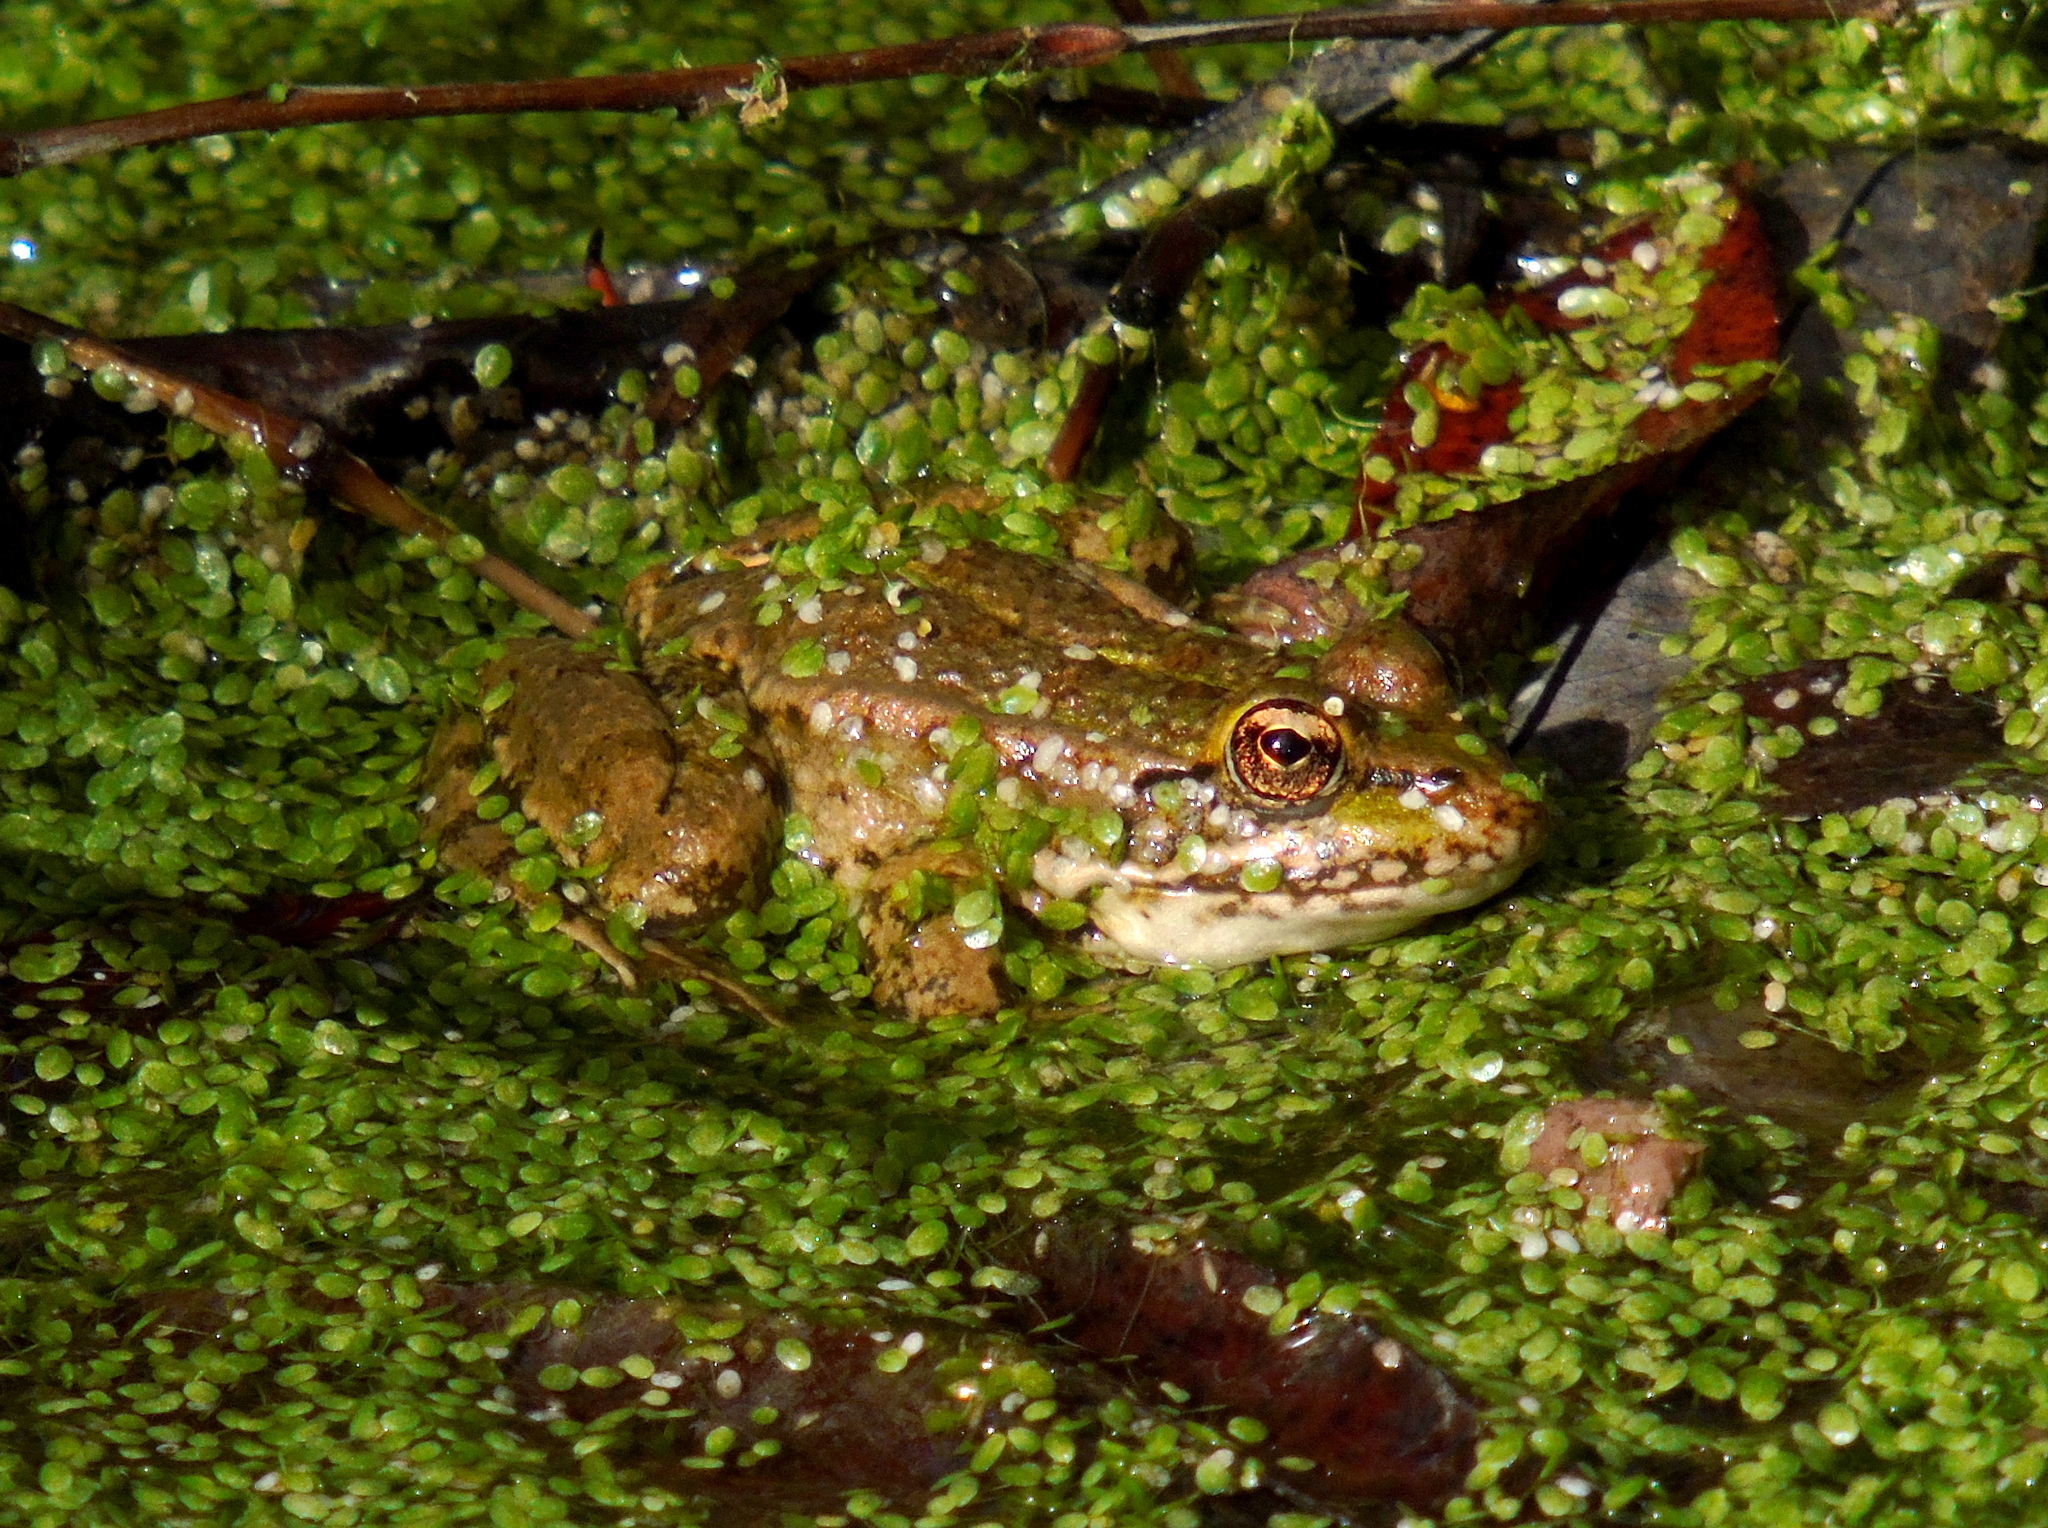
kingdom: Animalia
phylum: Chordata
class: Amphibia
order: Anura
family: Ranidae
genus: Pelophylax
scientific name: Pelophylax ridibundus
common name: Marsh frog
